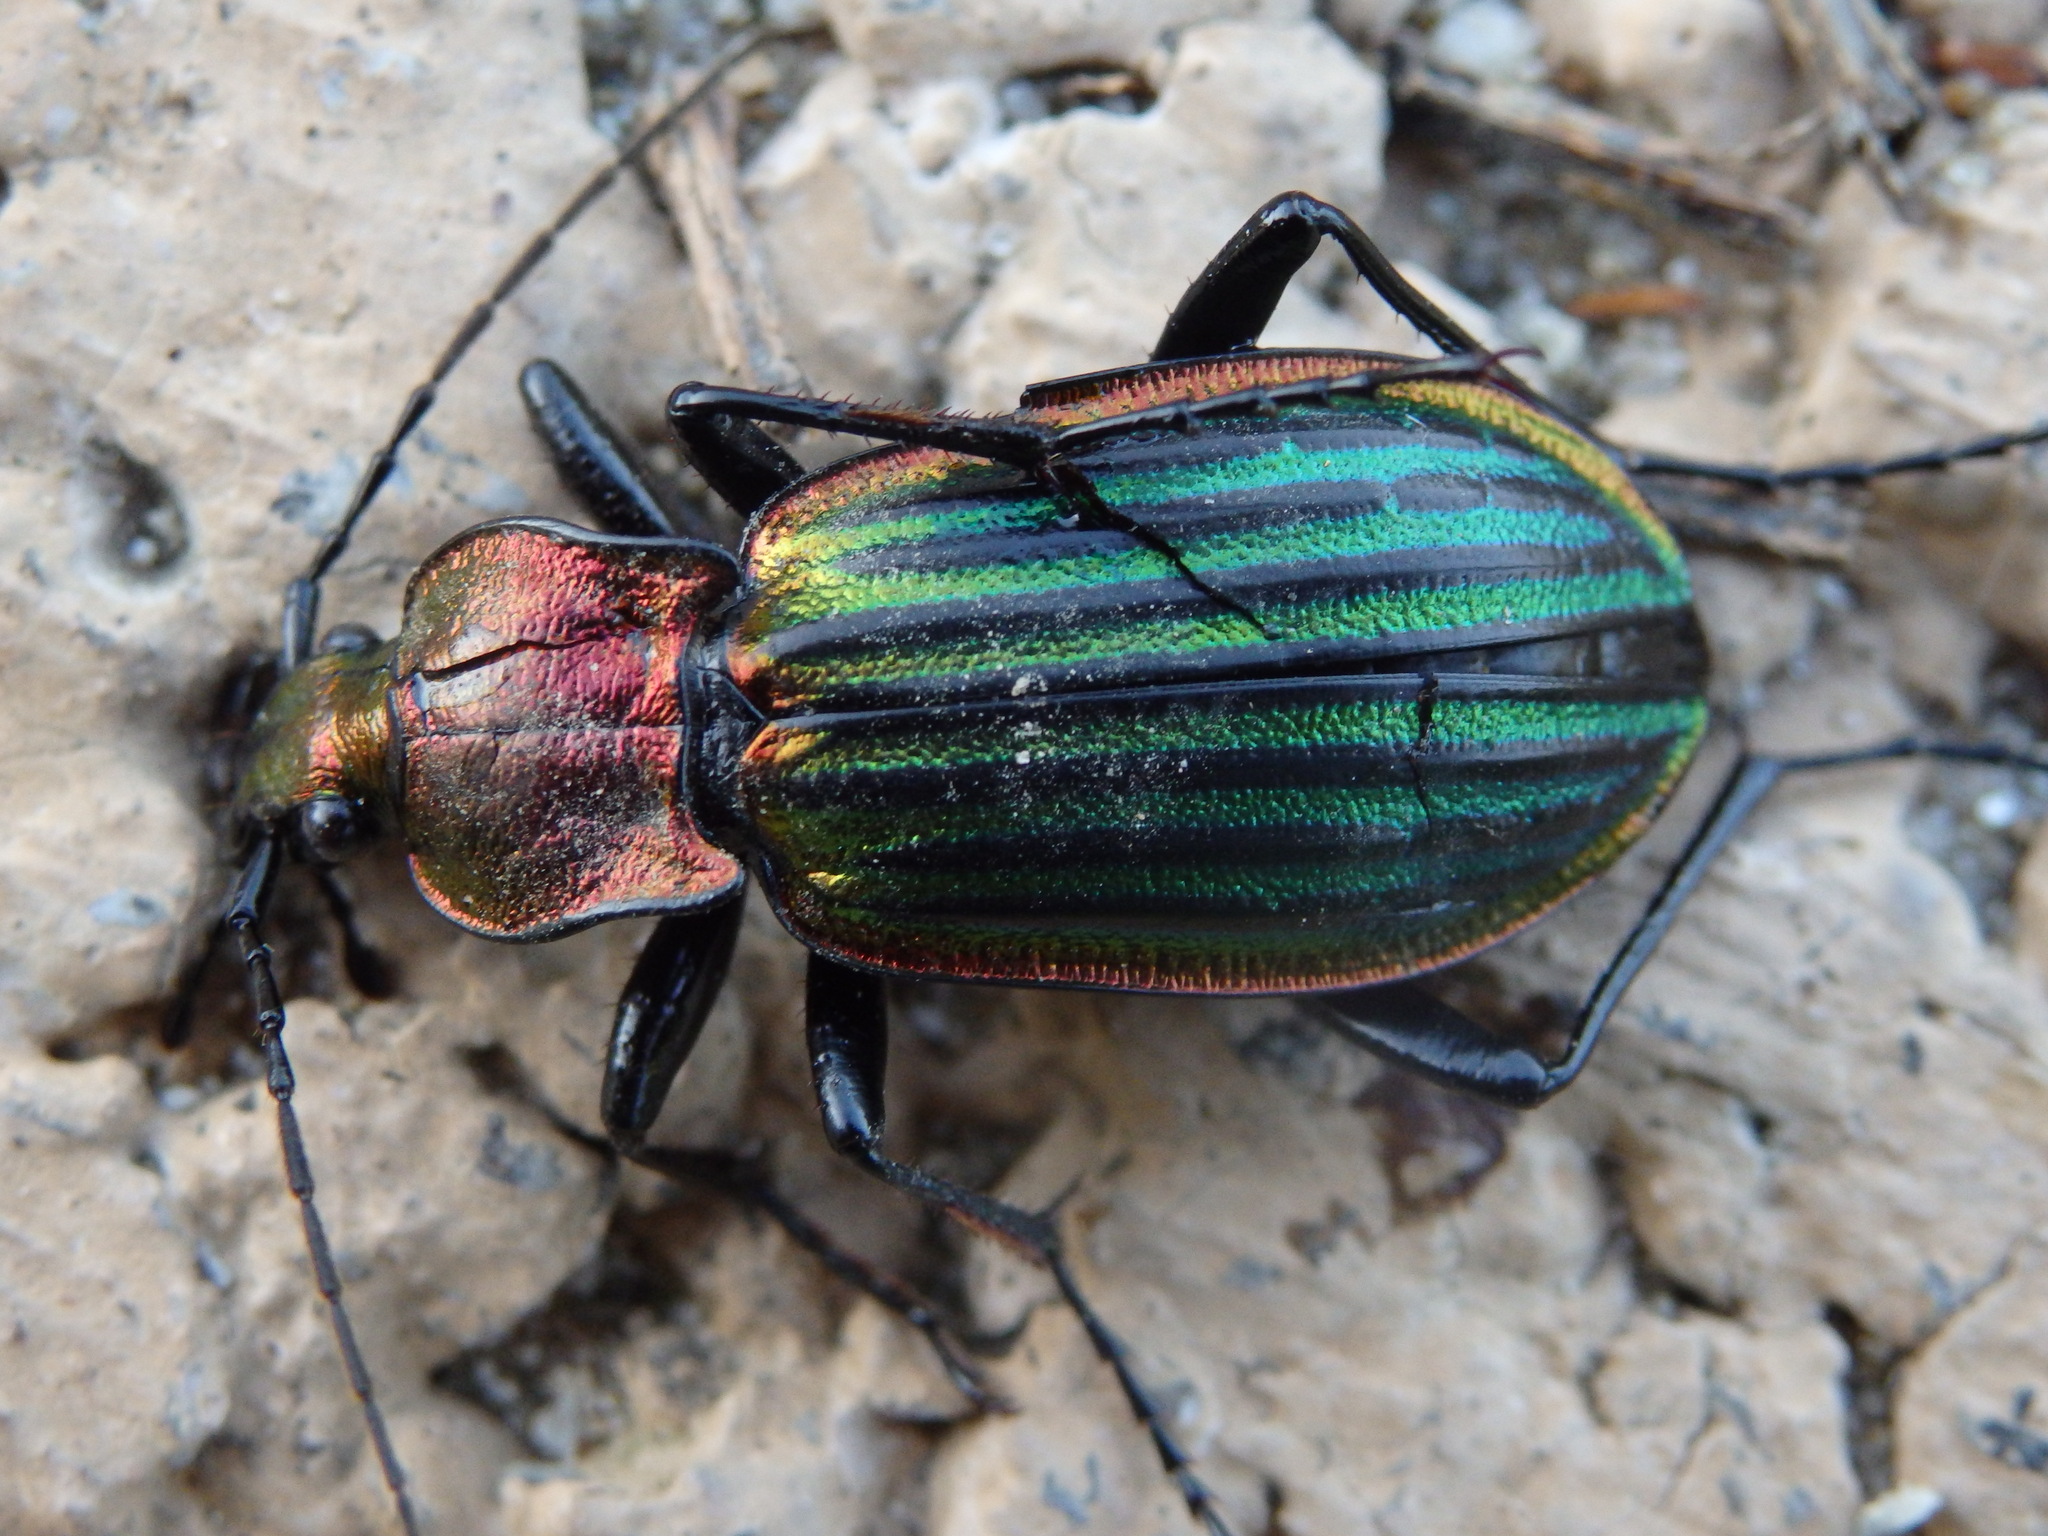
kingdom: Animalia
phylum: Arthropoda
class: Insecta
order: Coleoptera
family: Carabidae
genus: Carabus
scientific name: Carabus strasseri
